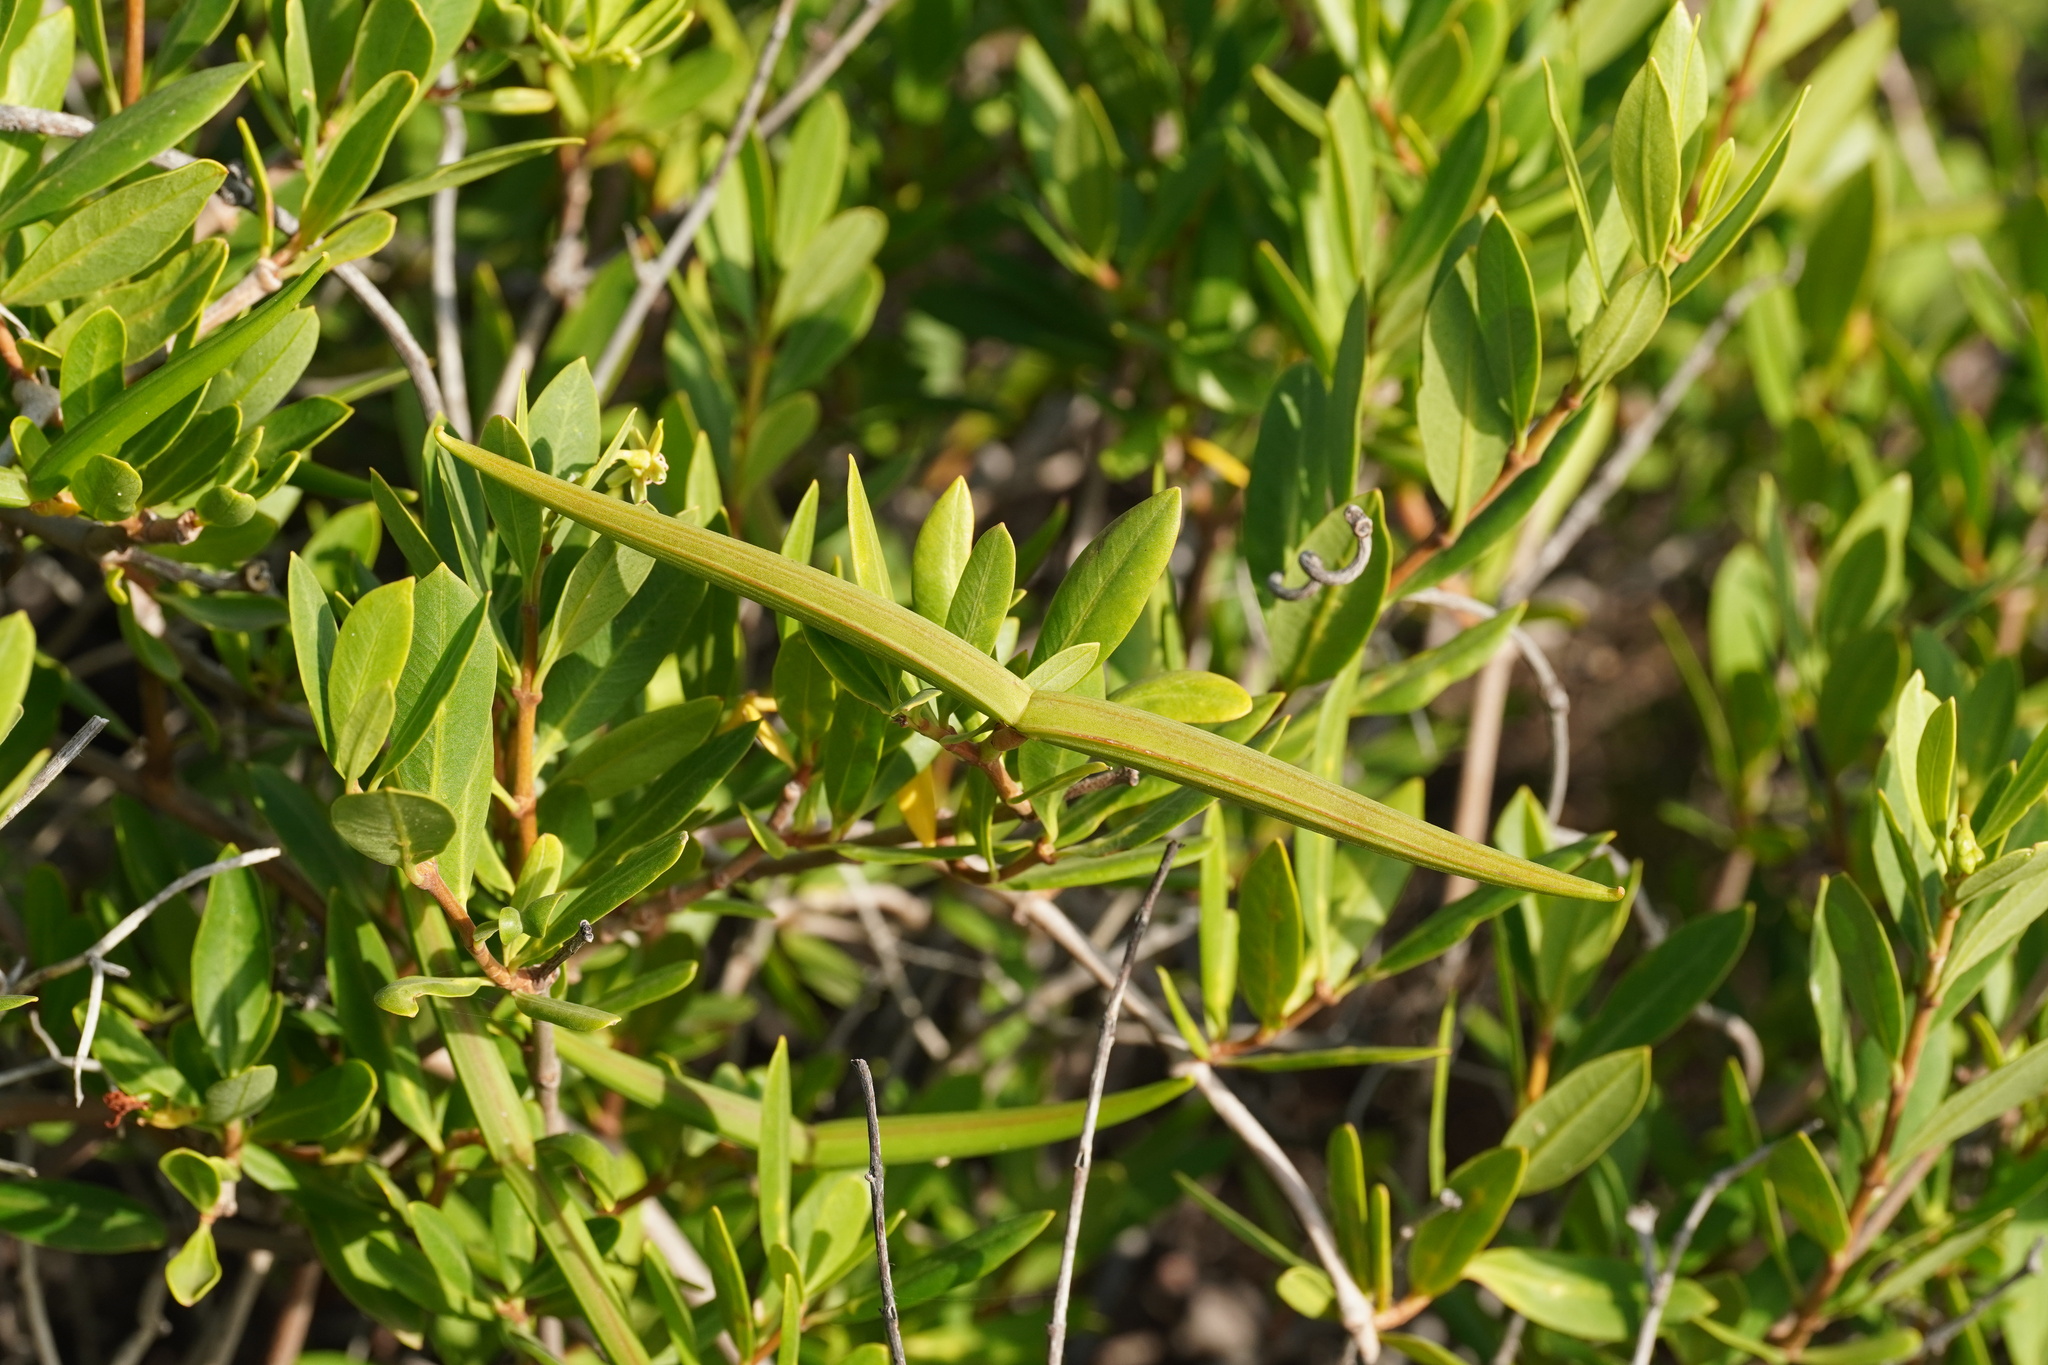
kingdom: Plantae
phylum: Tracheophyta
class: Magnoliopsida
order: Gentianales
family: Apocynaceae
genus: Periploca
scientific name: Periploca laevigata
